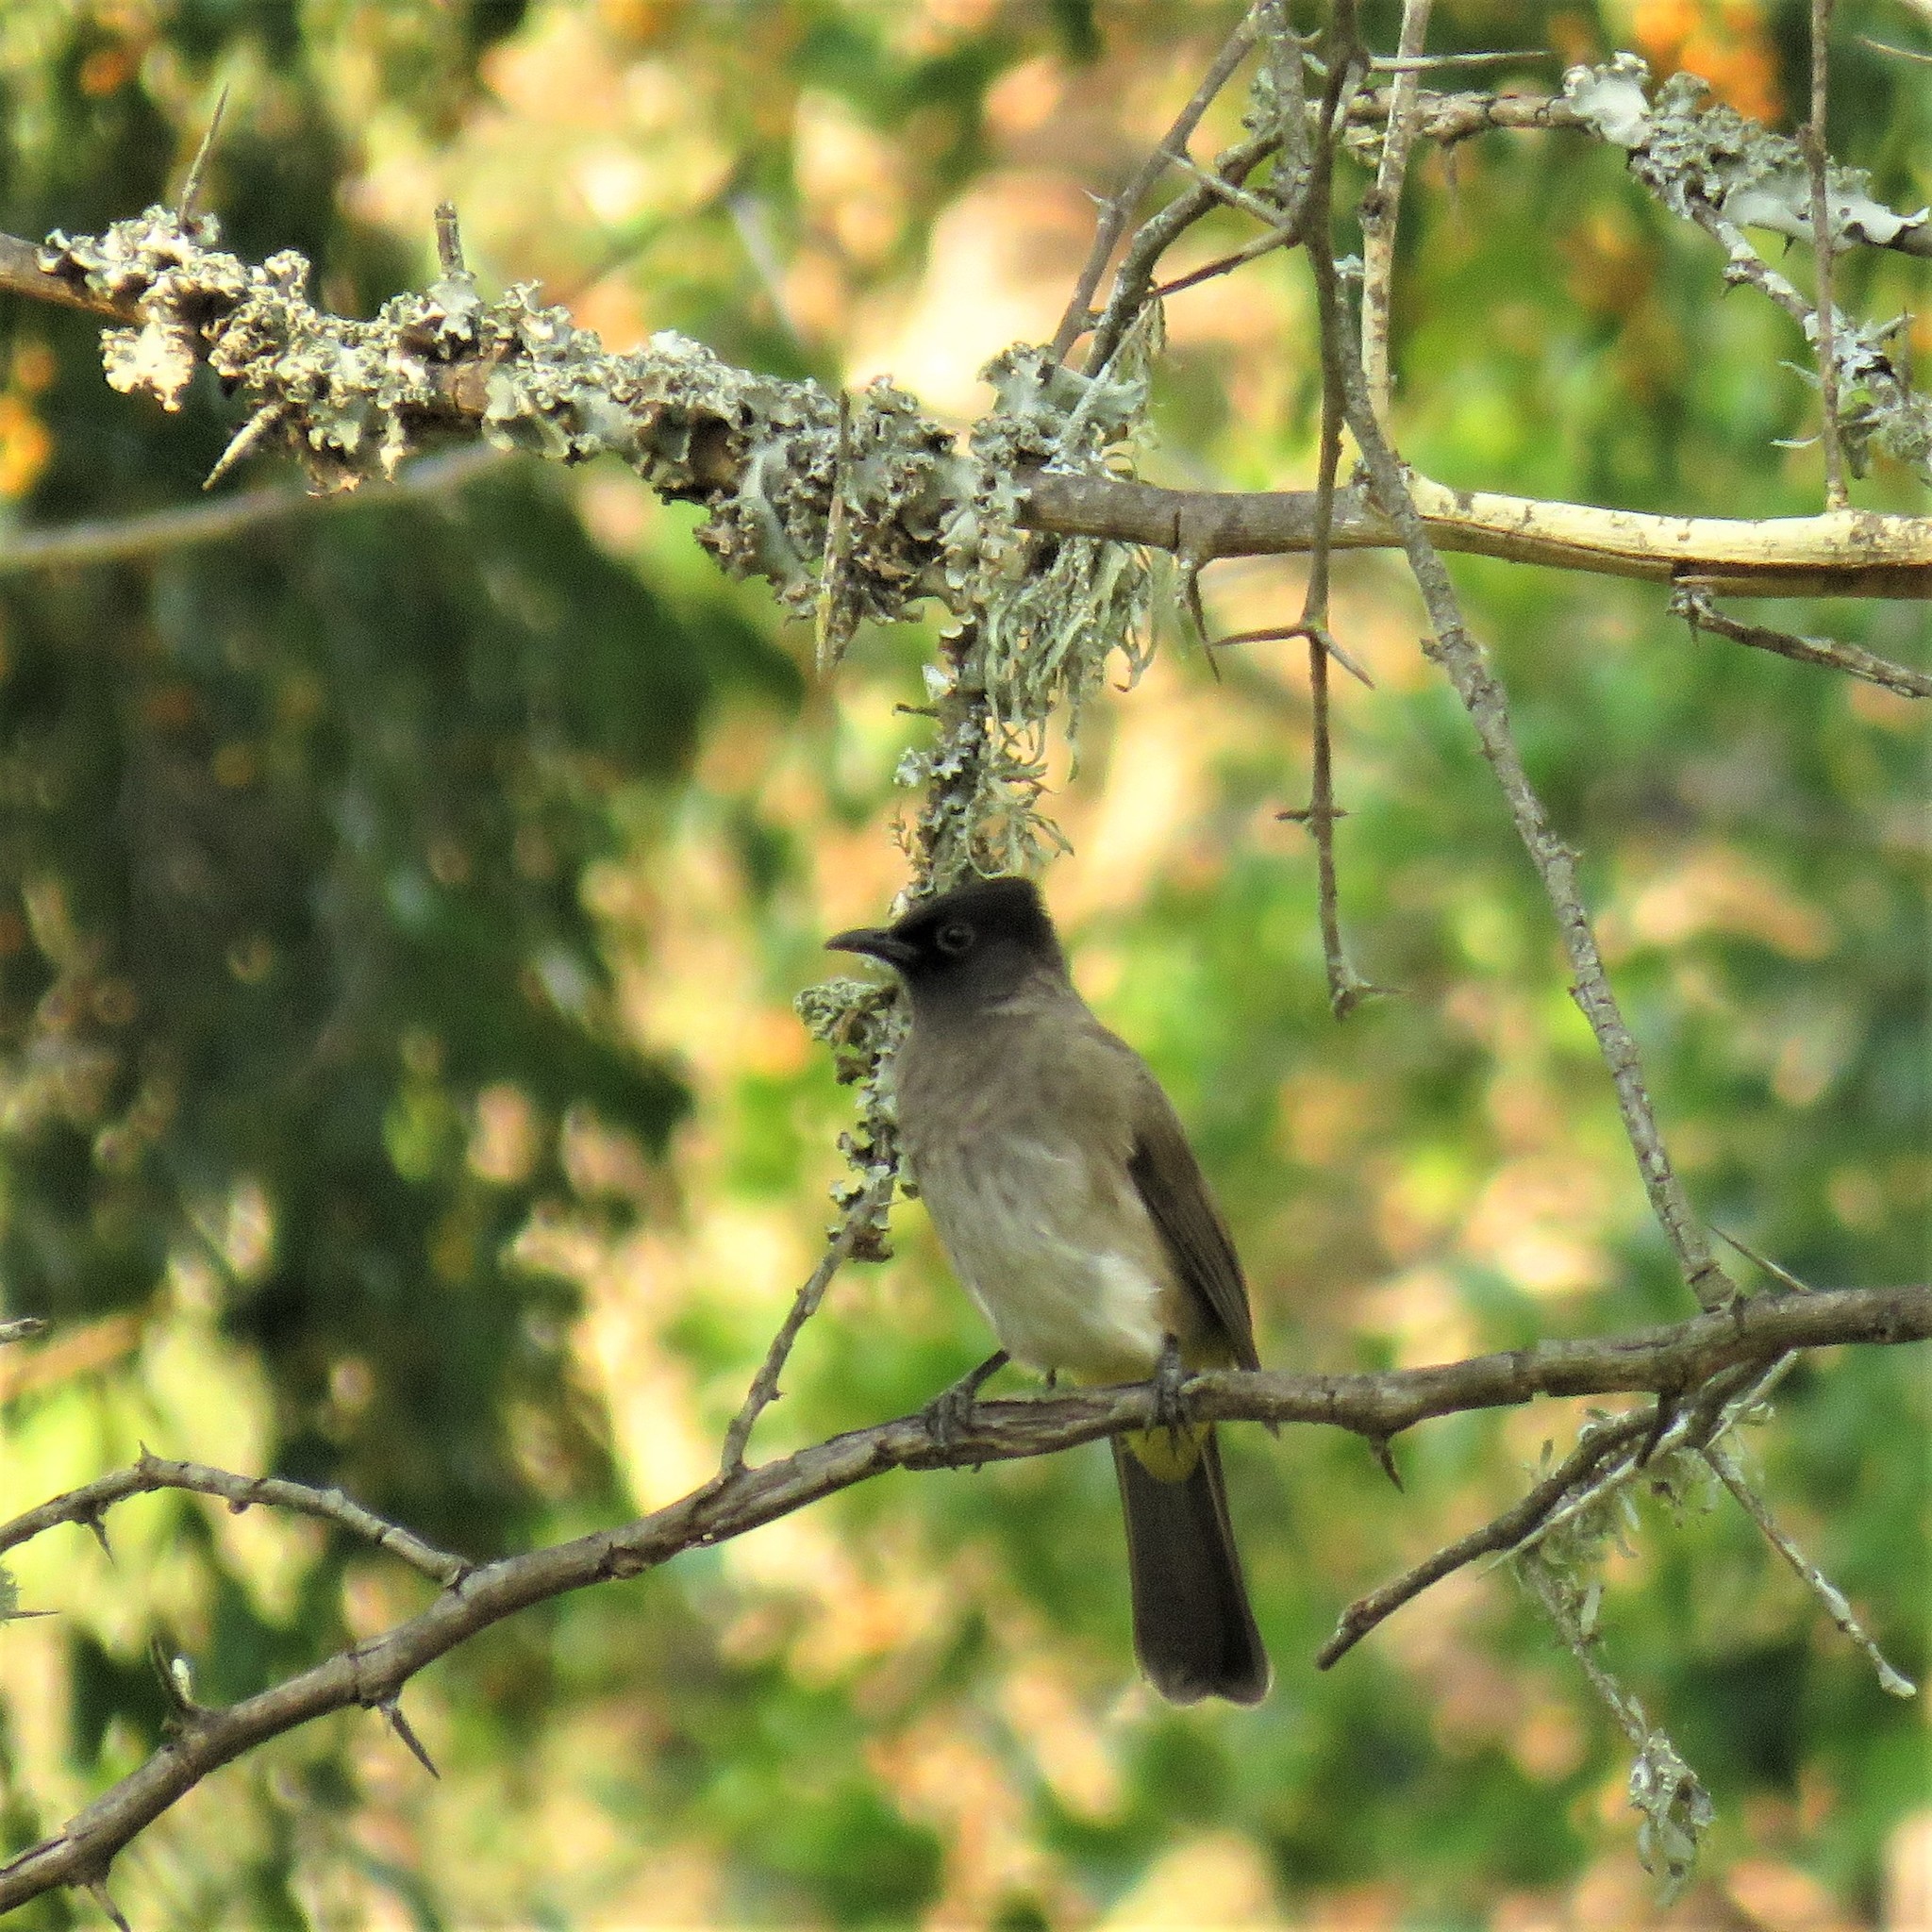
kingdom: Animalia
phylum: Chordata
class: Aves
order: Passeriformes
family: Pycnonotidae
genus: Pycnonotus
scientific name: Pycnonotus barbatus
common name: Common bulbul
